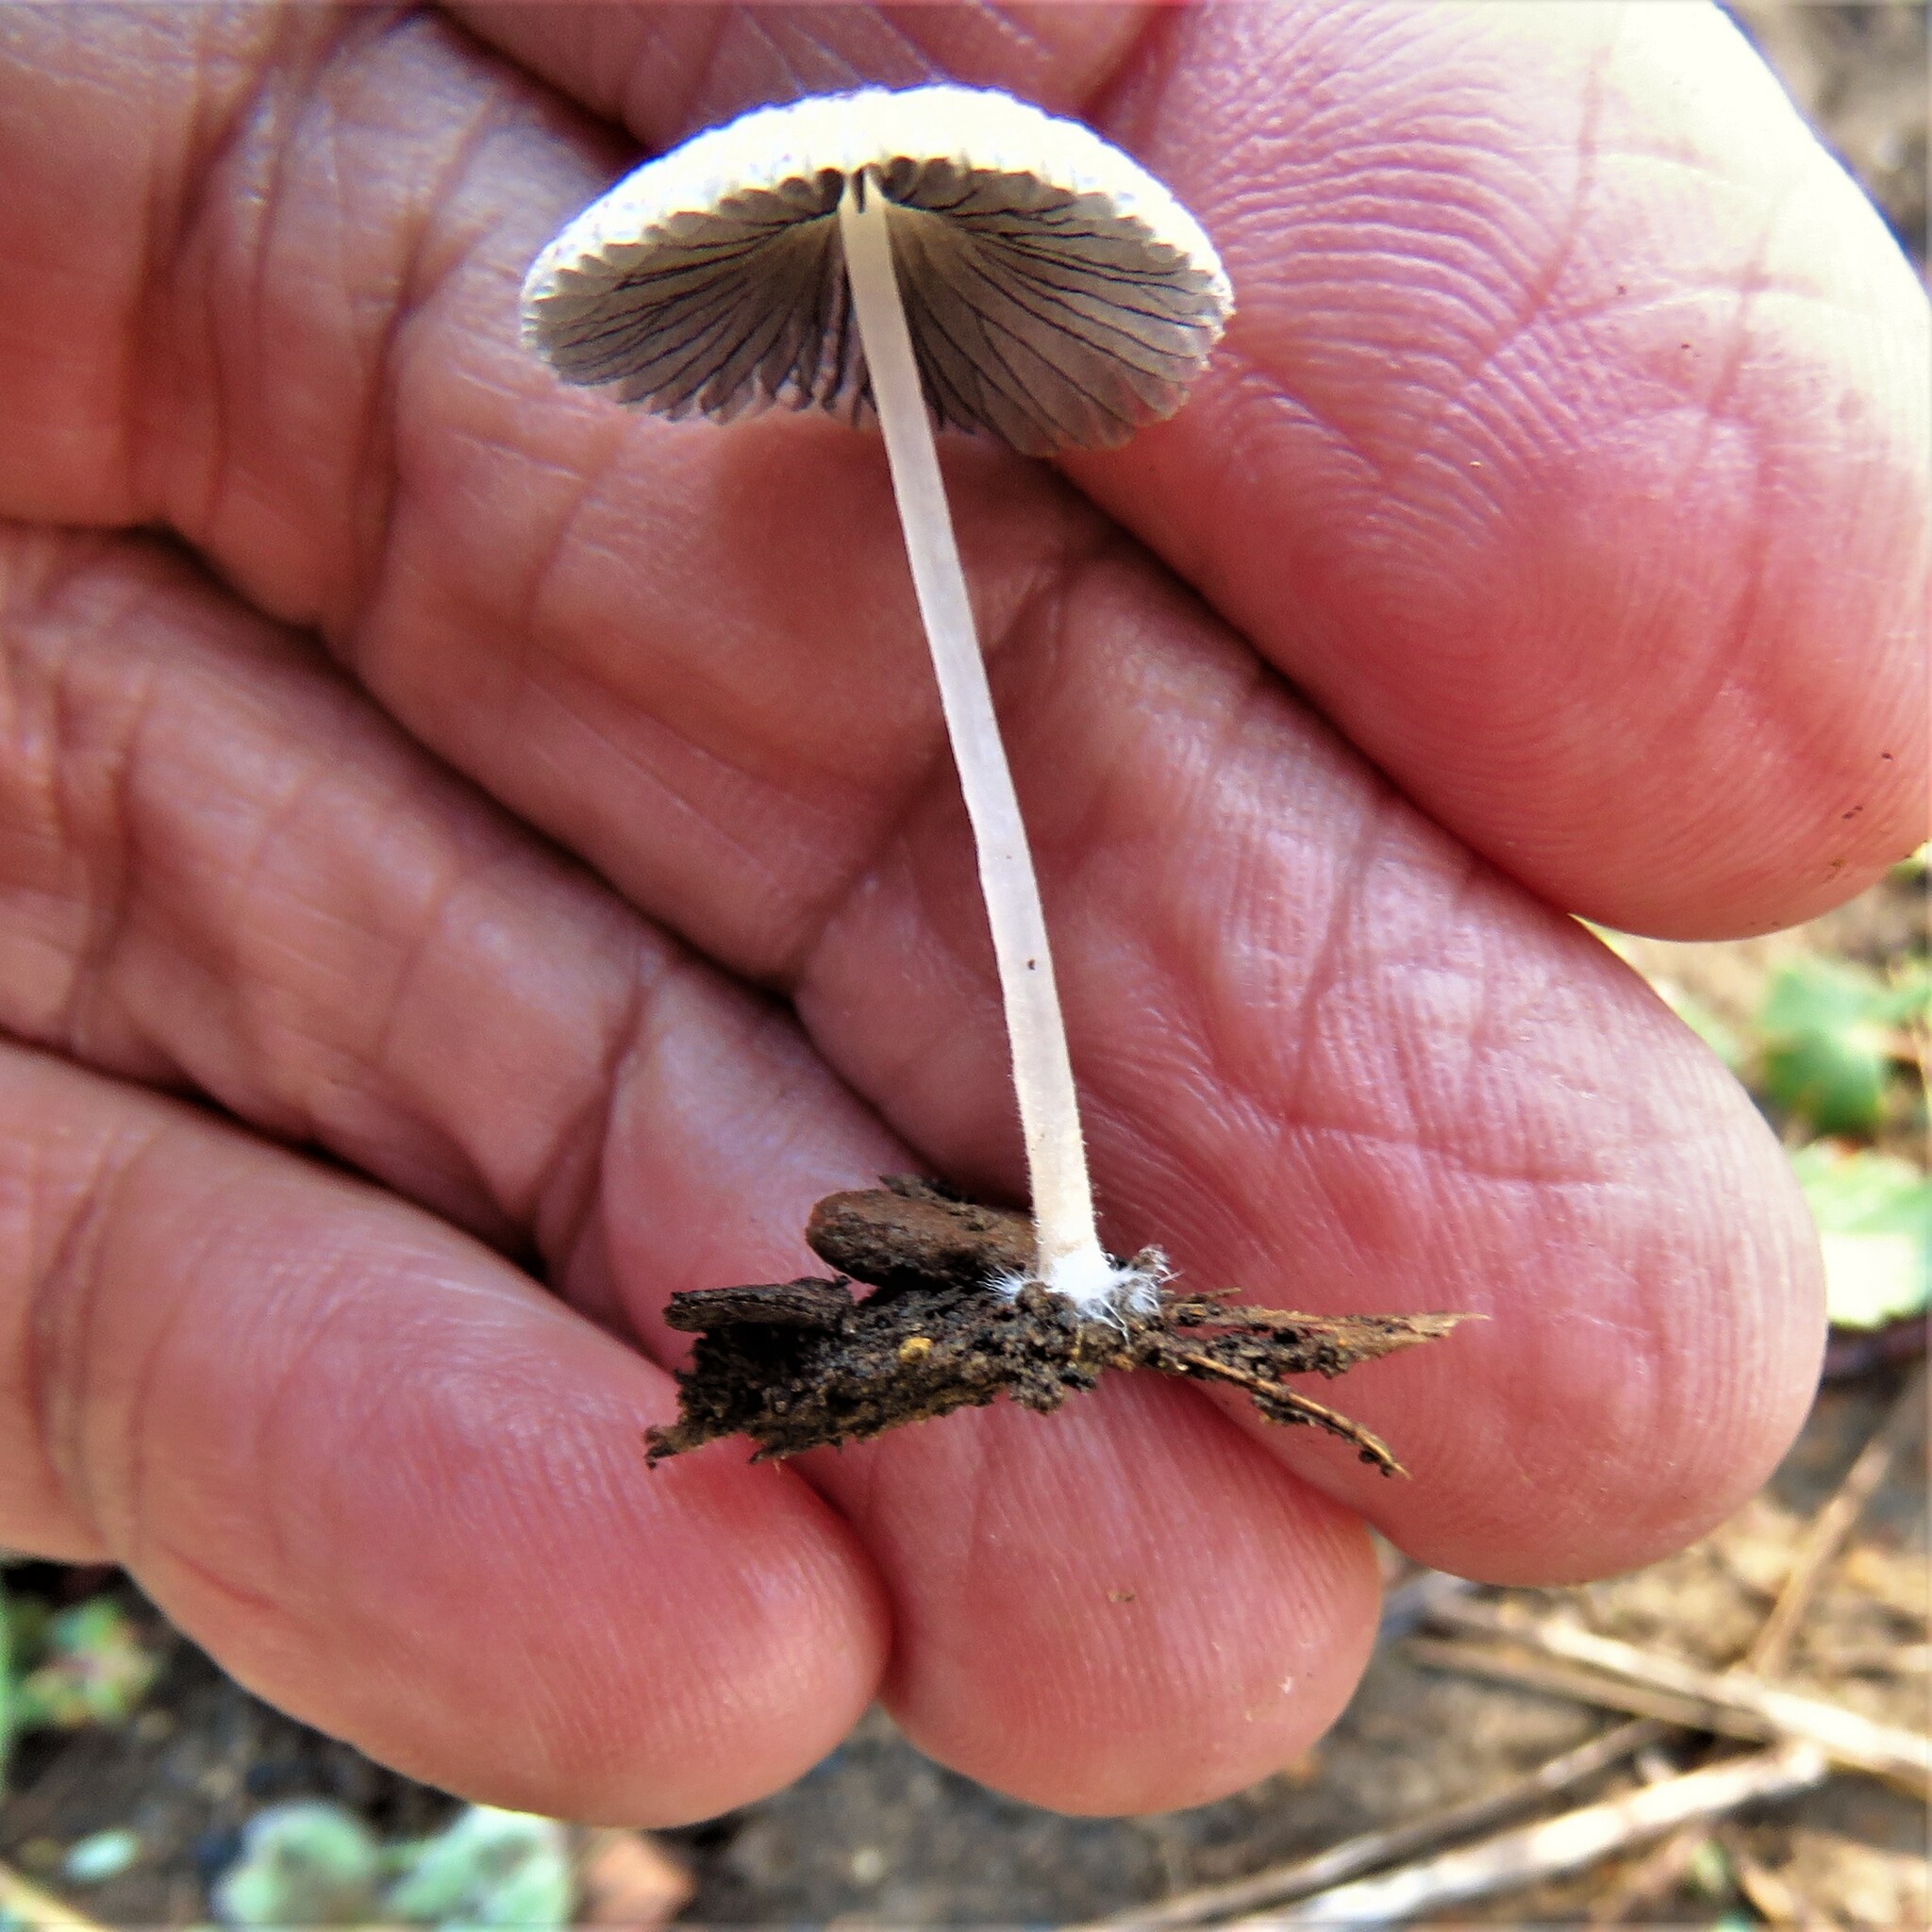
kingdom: Fungi
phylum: Basidiomycota
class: Agaricomycetes
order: Agaricales
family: Psathyrellaceae
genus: Parasola
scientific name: Parasola plicatilis
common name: Pleated inkcap
